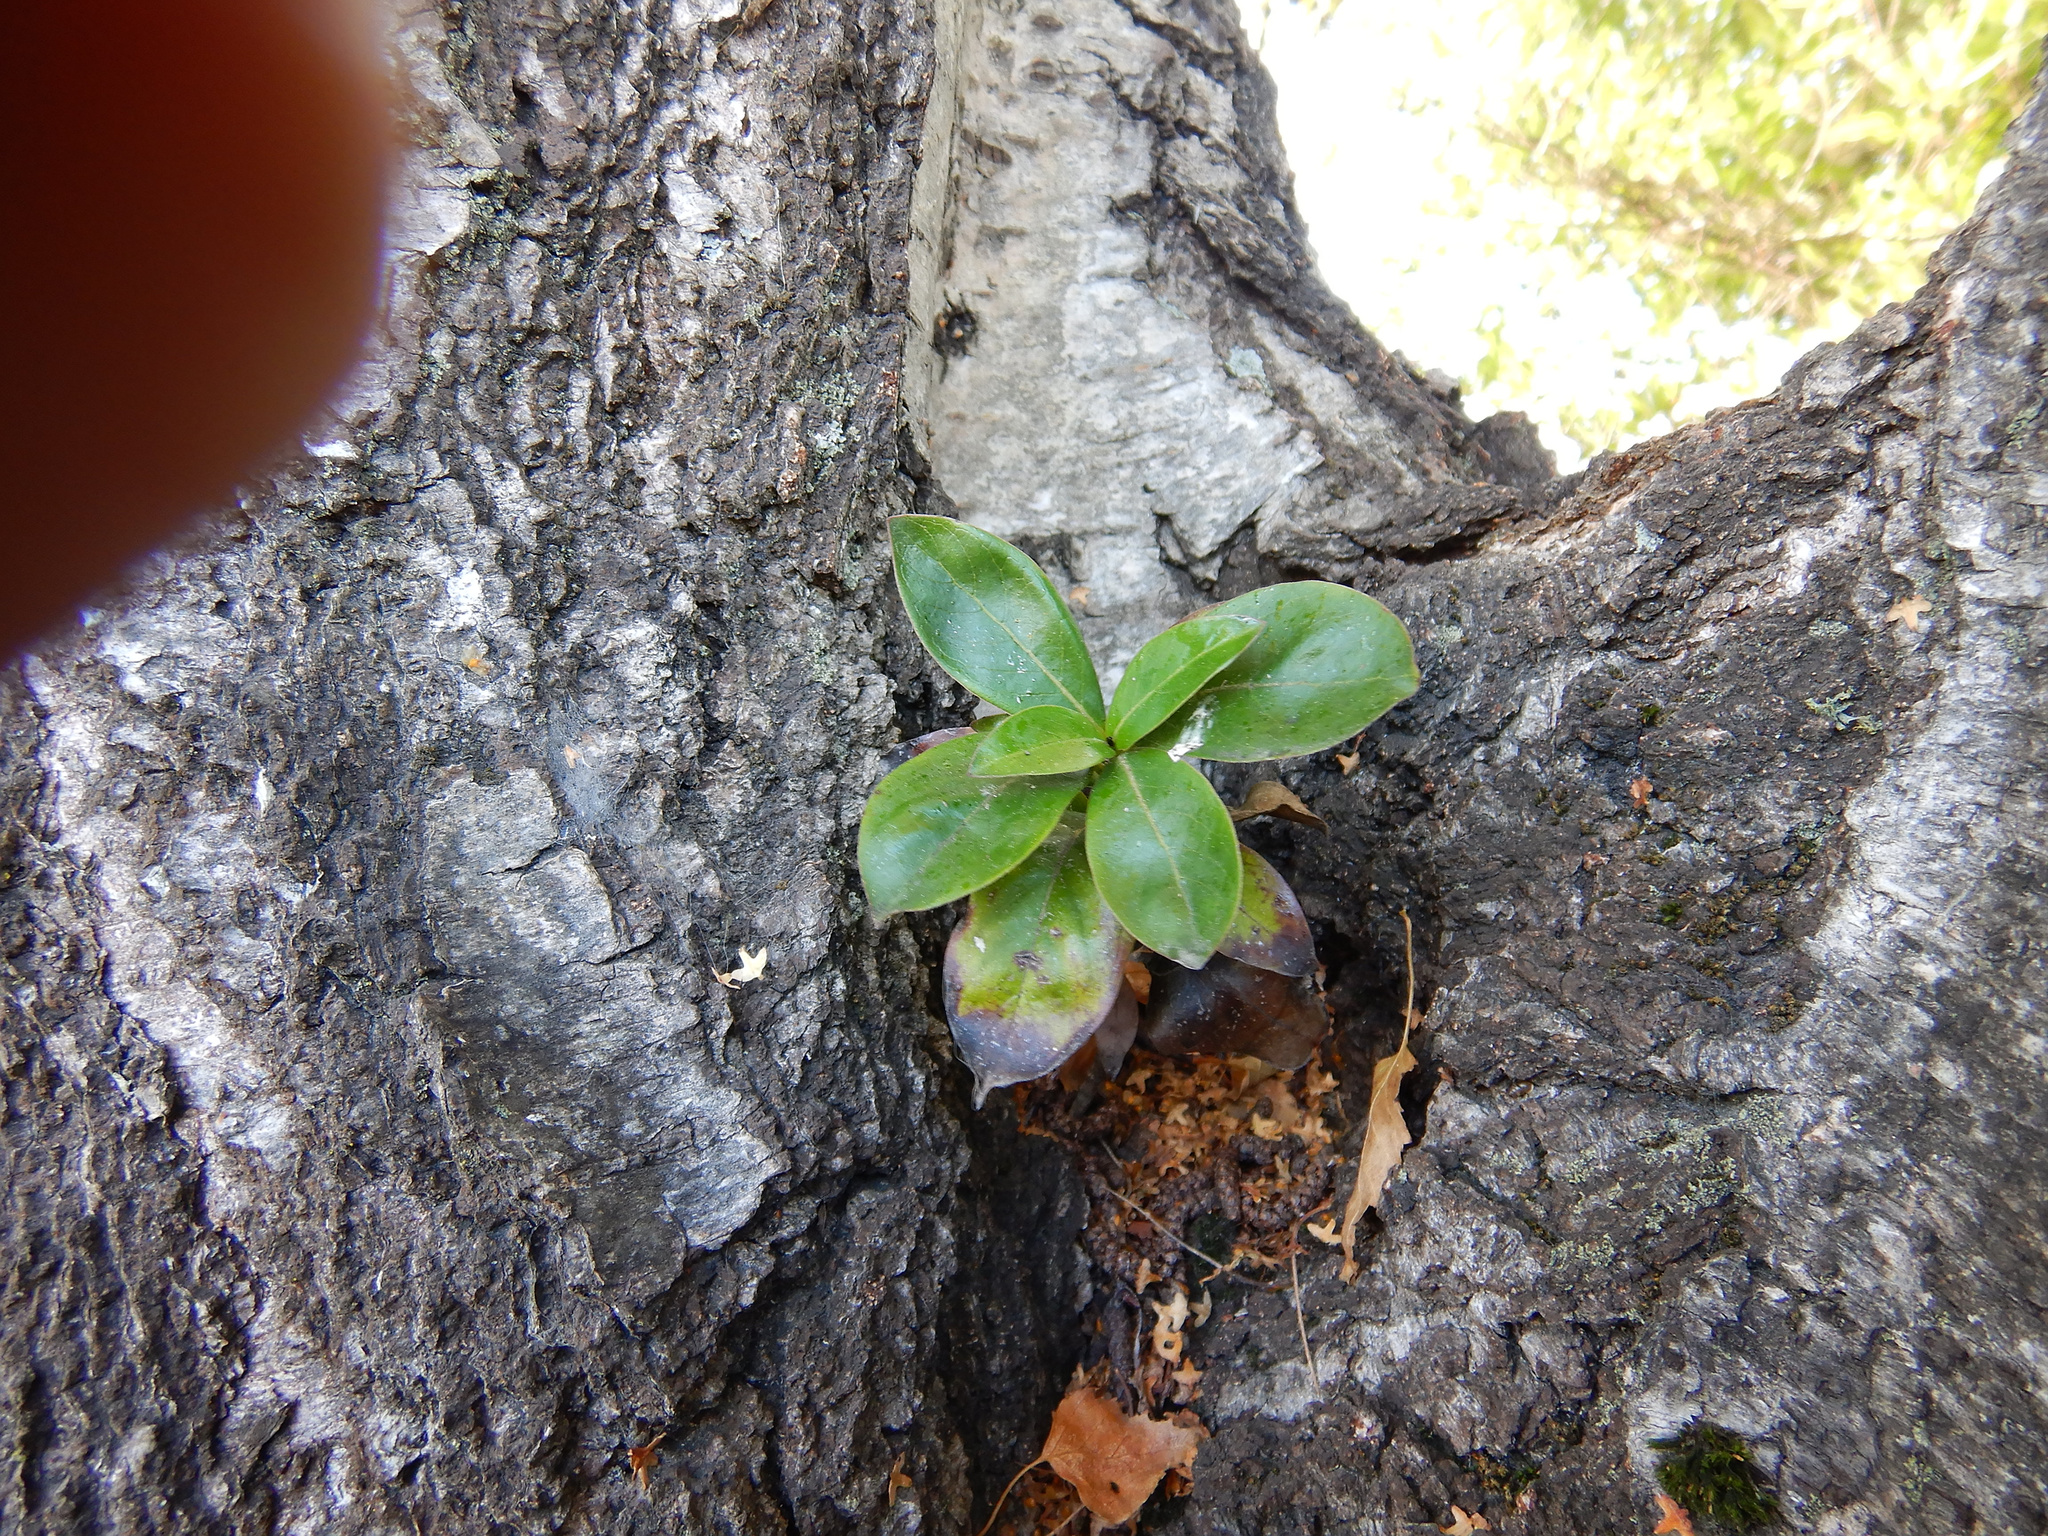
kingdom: Plantae
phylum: Tracheophyta
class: Magnoliopsida
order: Gentianales
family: Rubiaceae
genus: Coprosma
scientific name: Coprosma robusta
